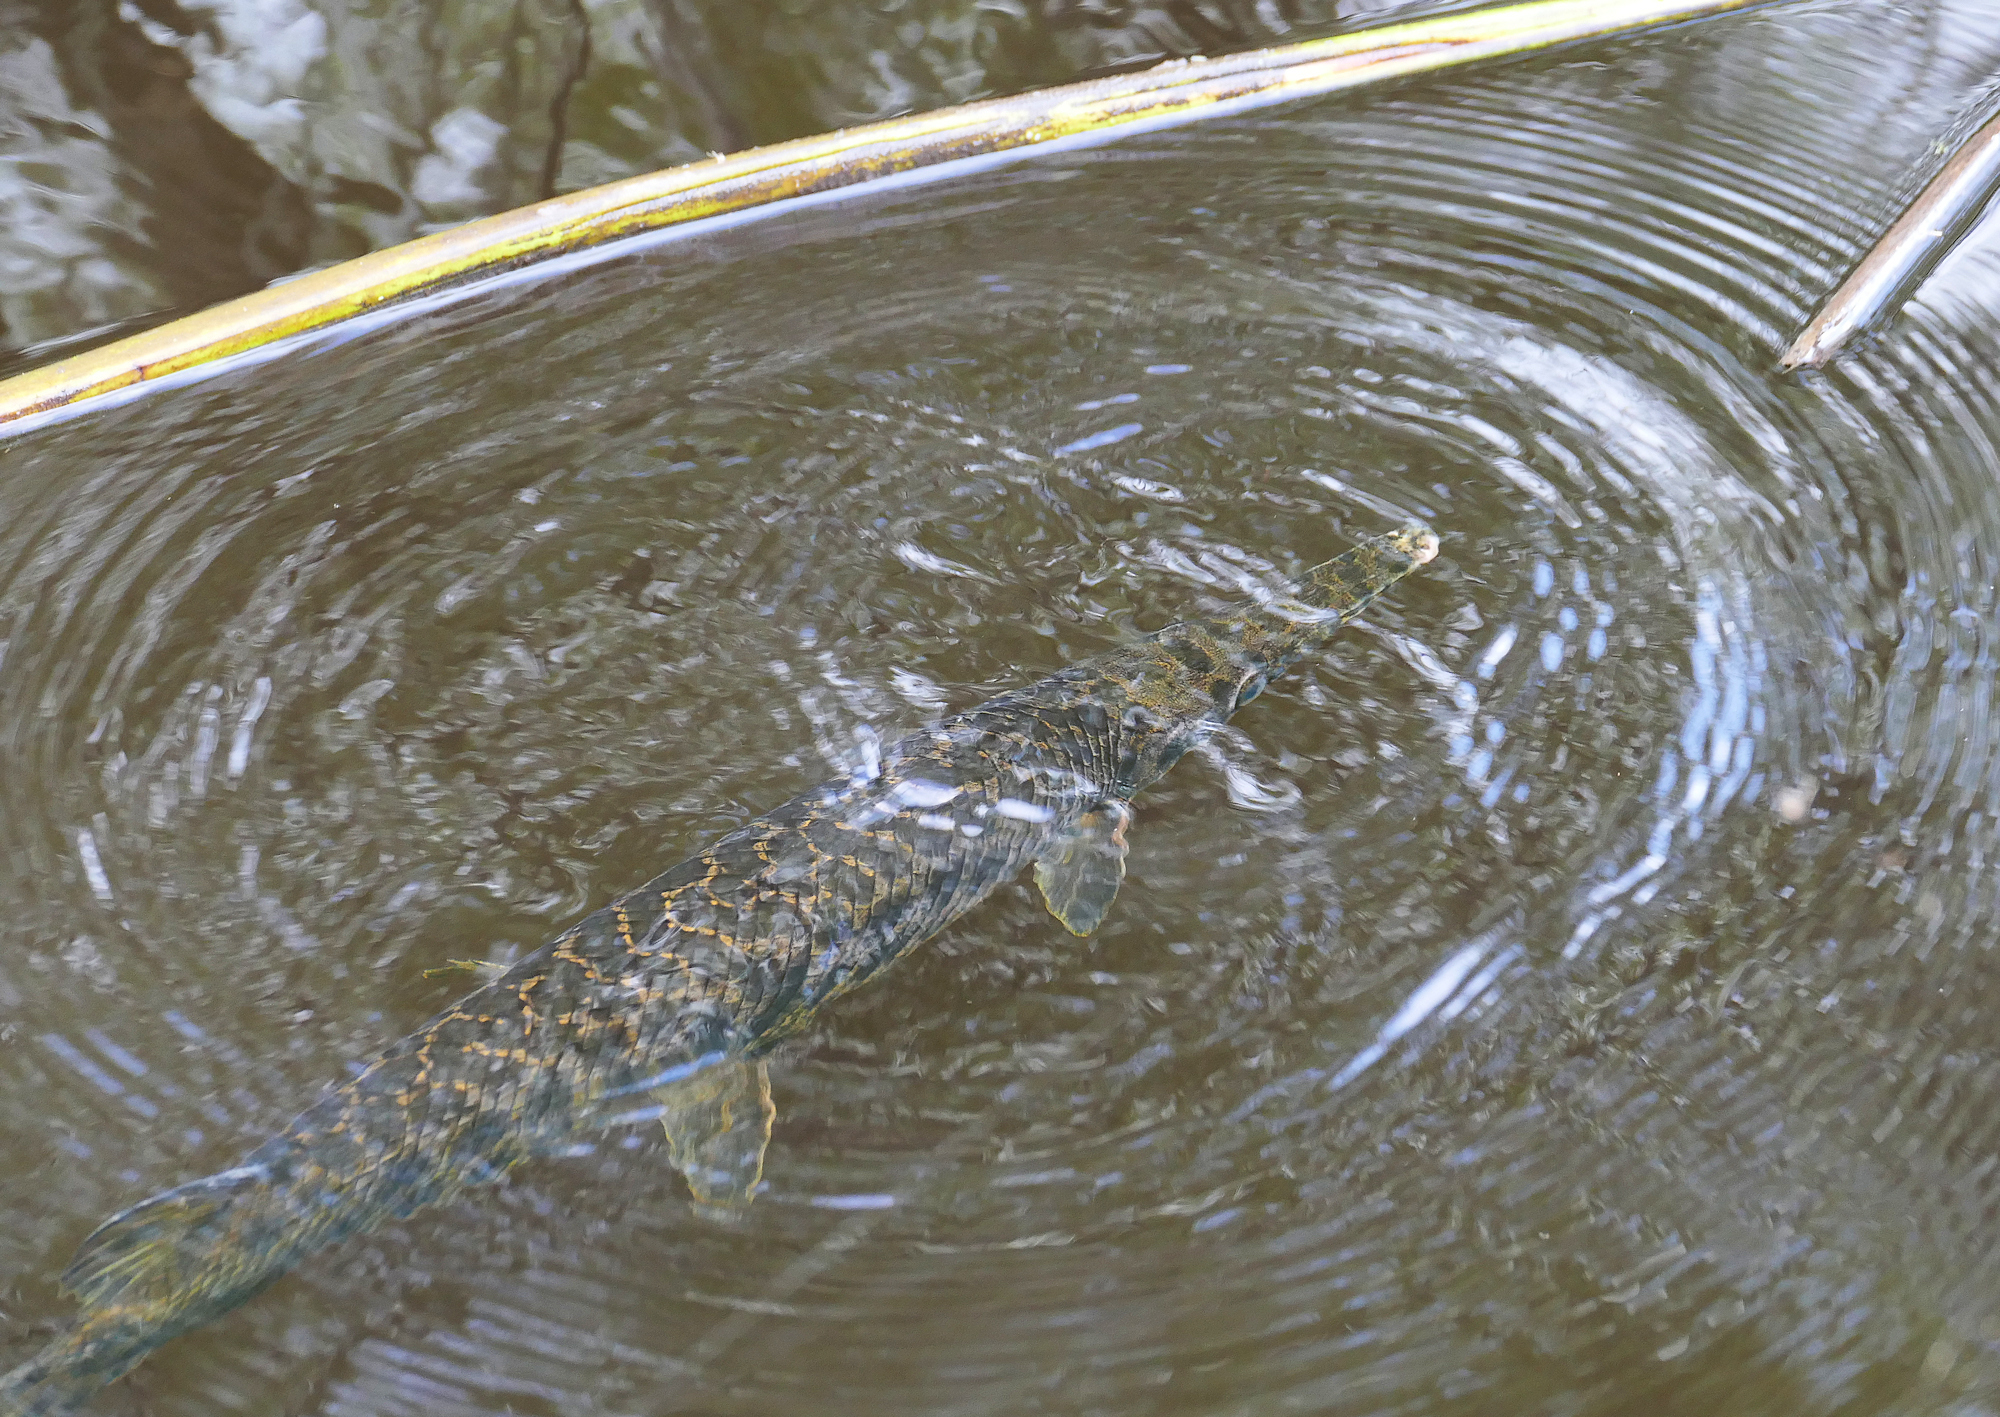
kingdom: Animalia
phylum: Chordata
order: Lepisosteiformes
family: Lepisosteidae
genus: Lepisosteus
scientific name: Lepisosteus oculatus
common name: Spotted gar
